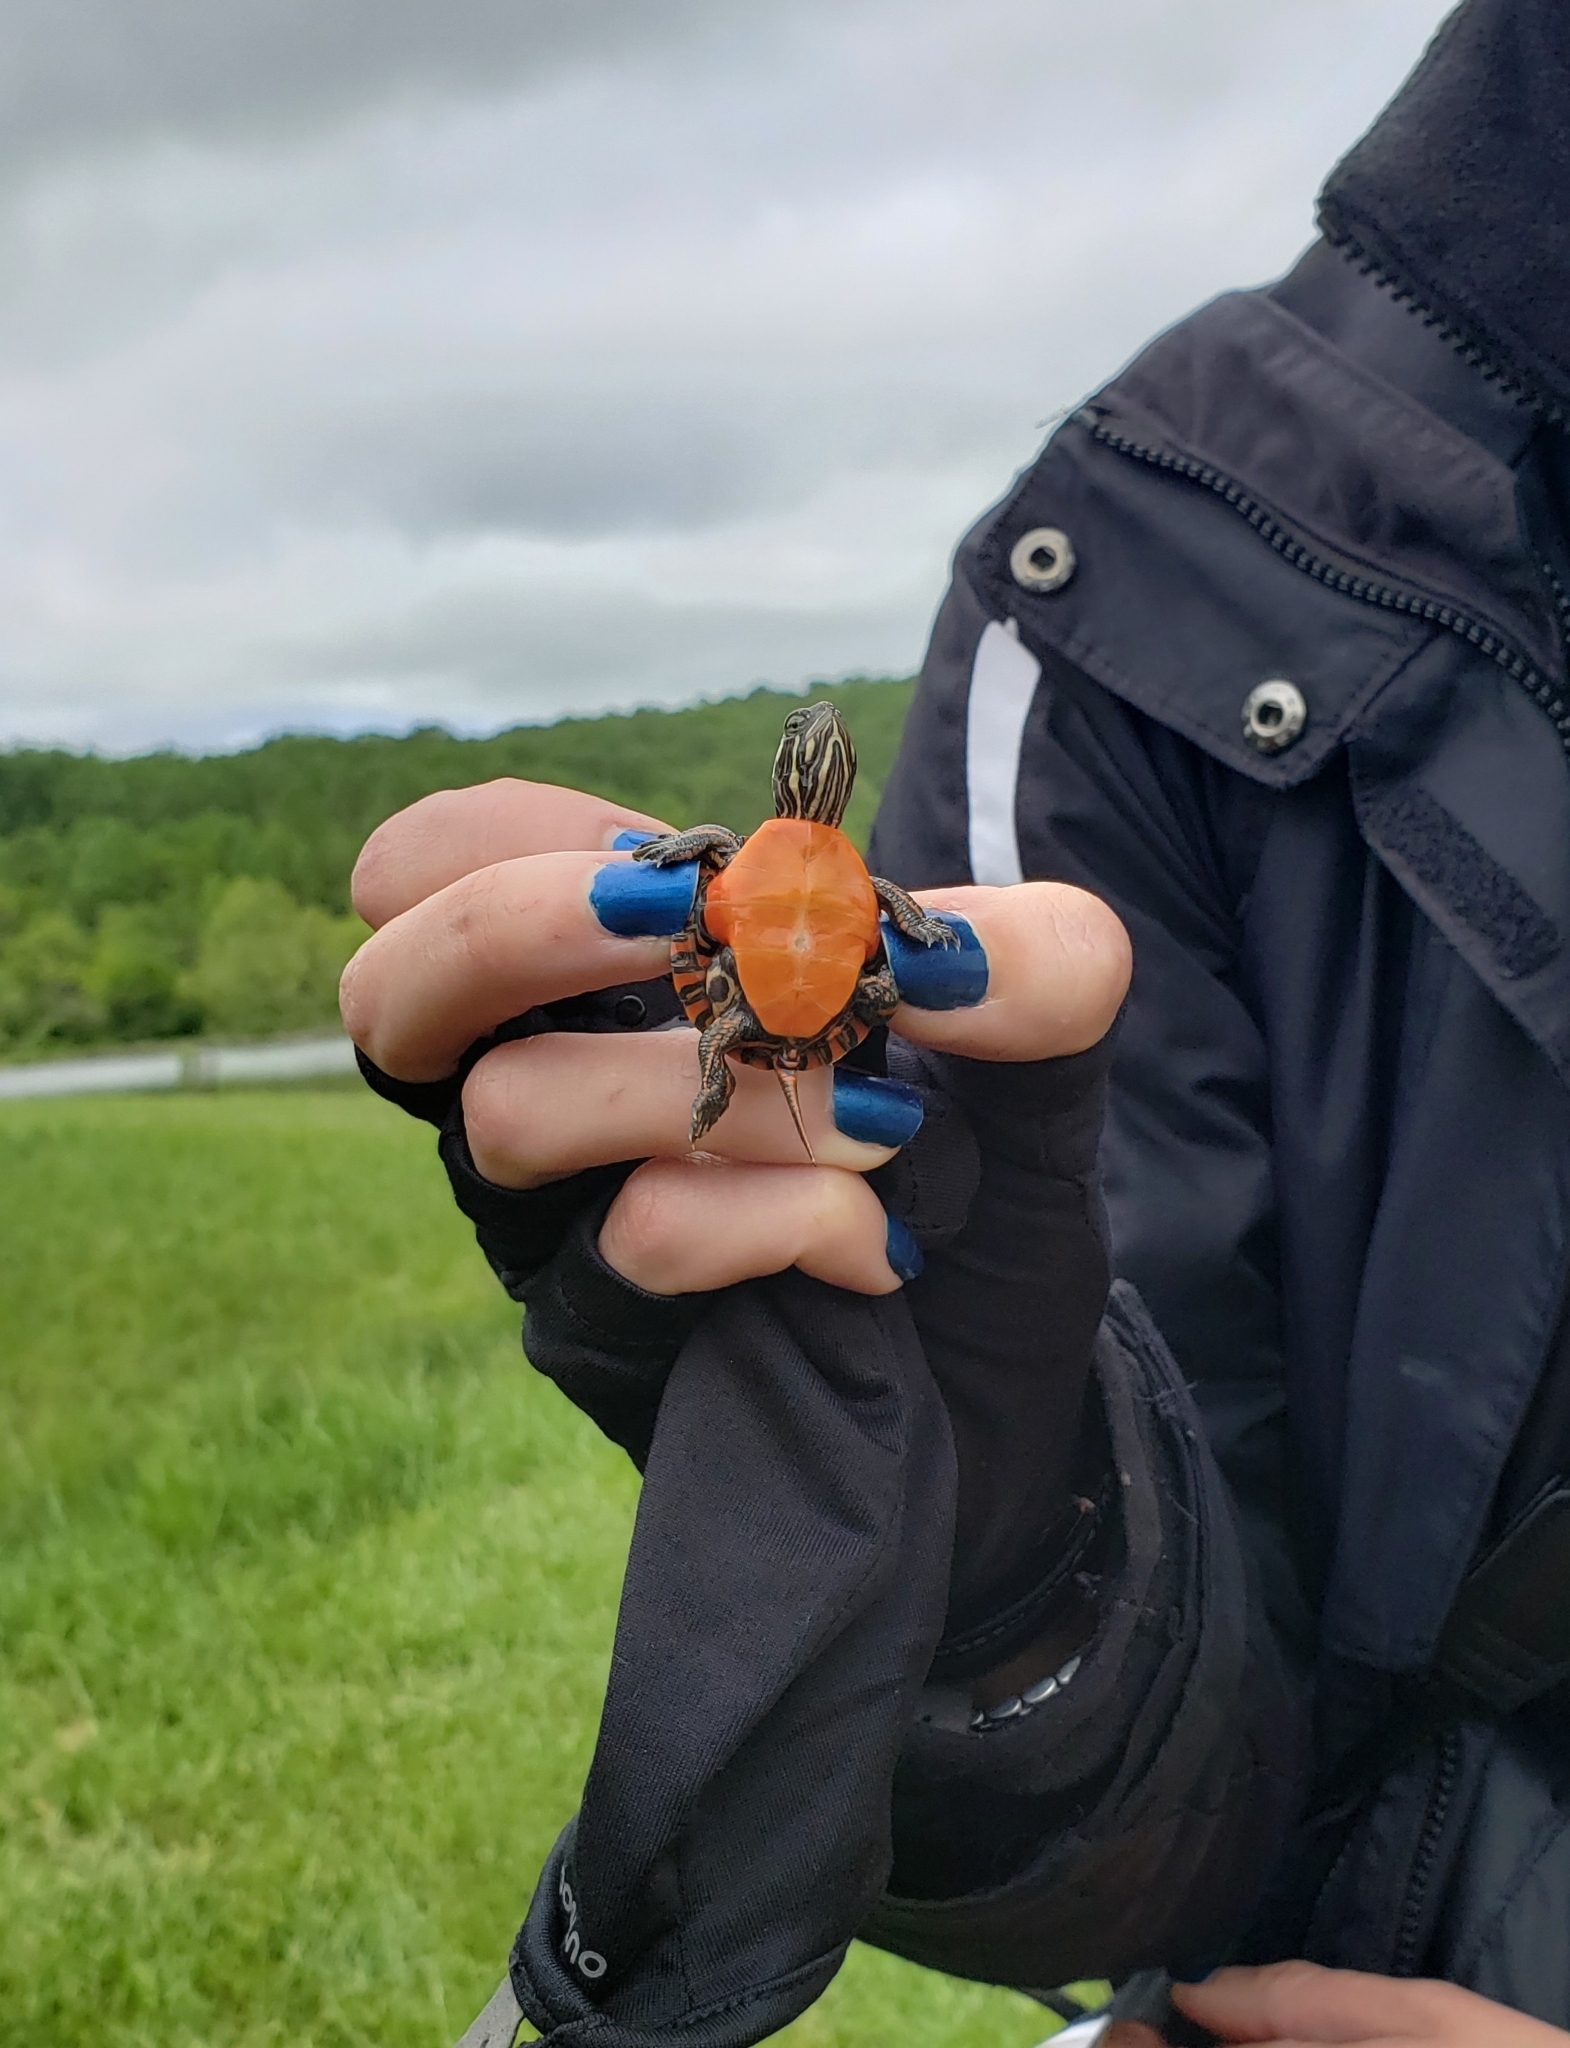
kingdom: Animalia
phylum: Chordata
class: Testudines
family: Emydidae
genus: Chrysemys
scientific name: Chrysemys picta
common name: Painted turtle
